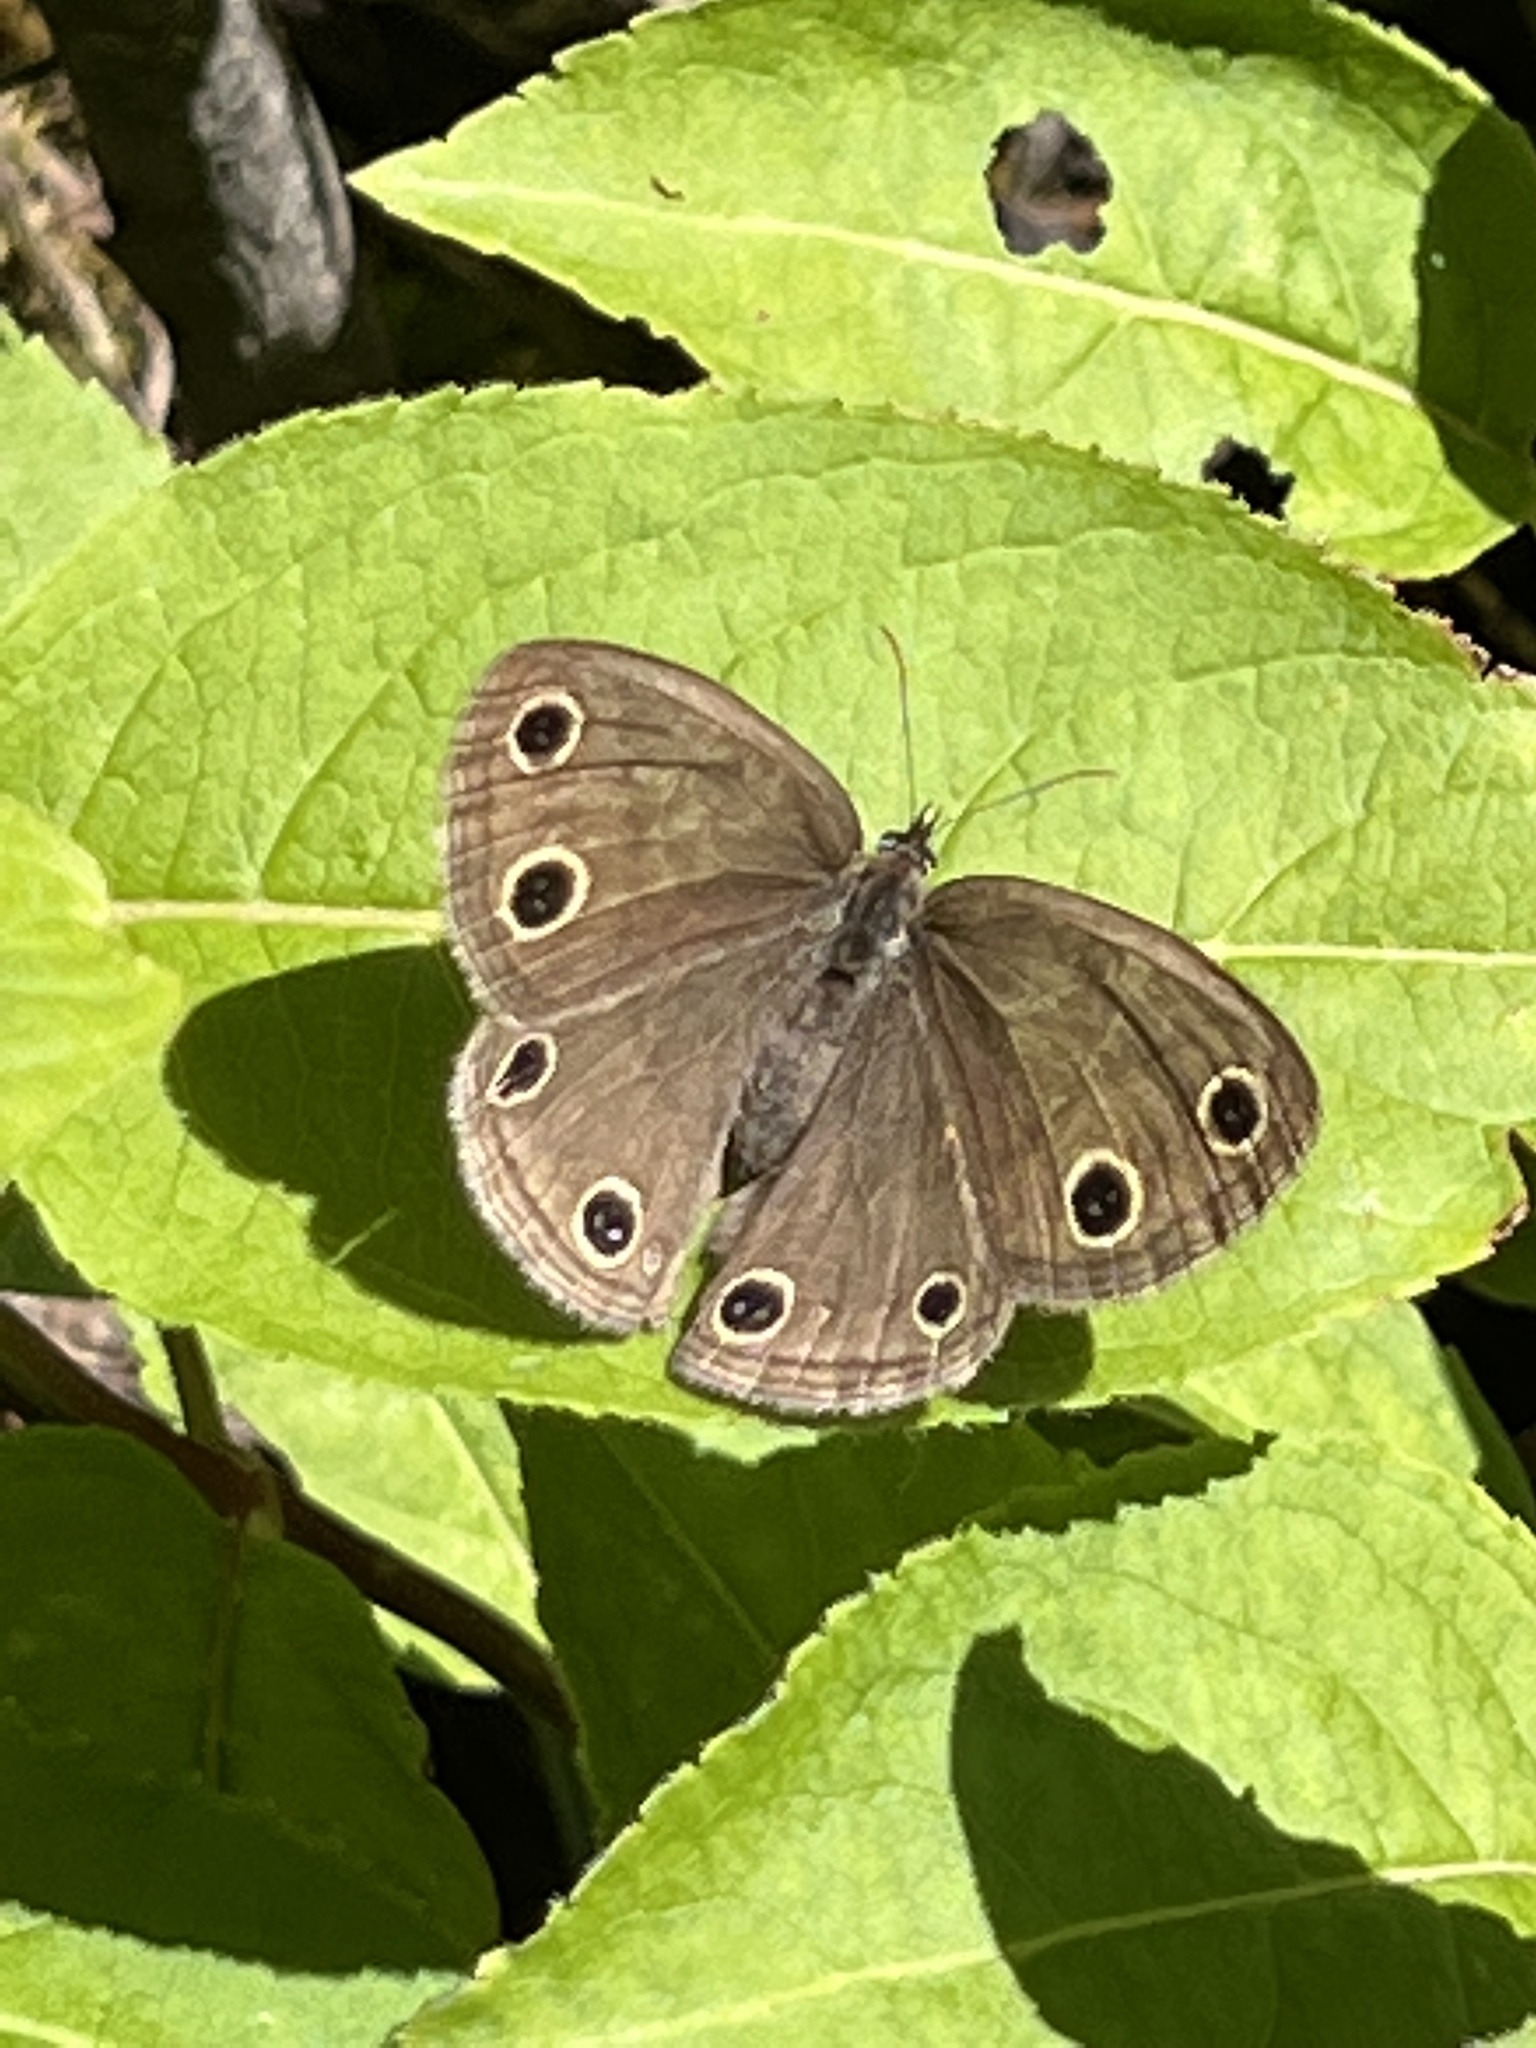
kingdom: Animalia
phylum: Arthropoda
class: Insecta
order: Lepidoptera
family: Nymphalidae
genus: Euptychia
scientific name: Euptychia cymela
